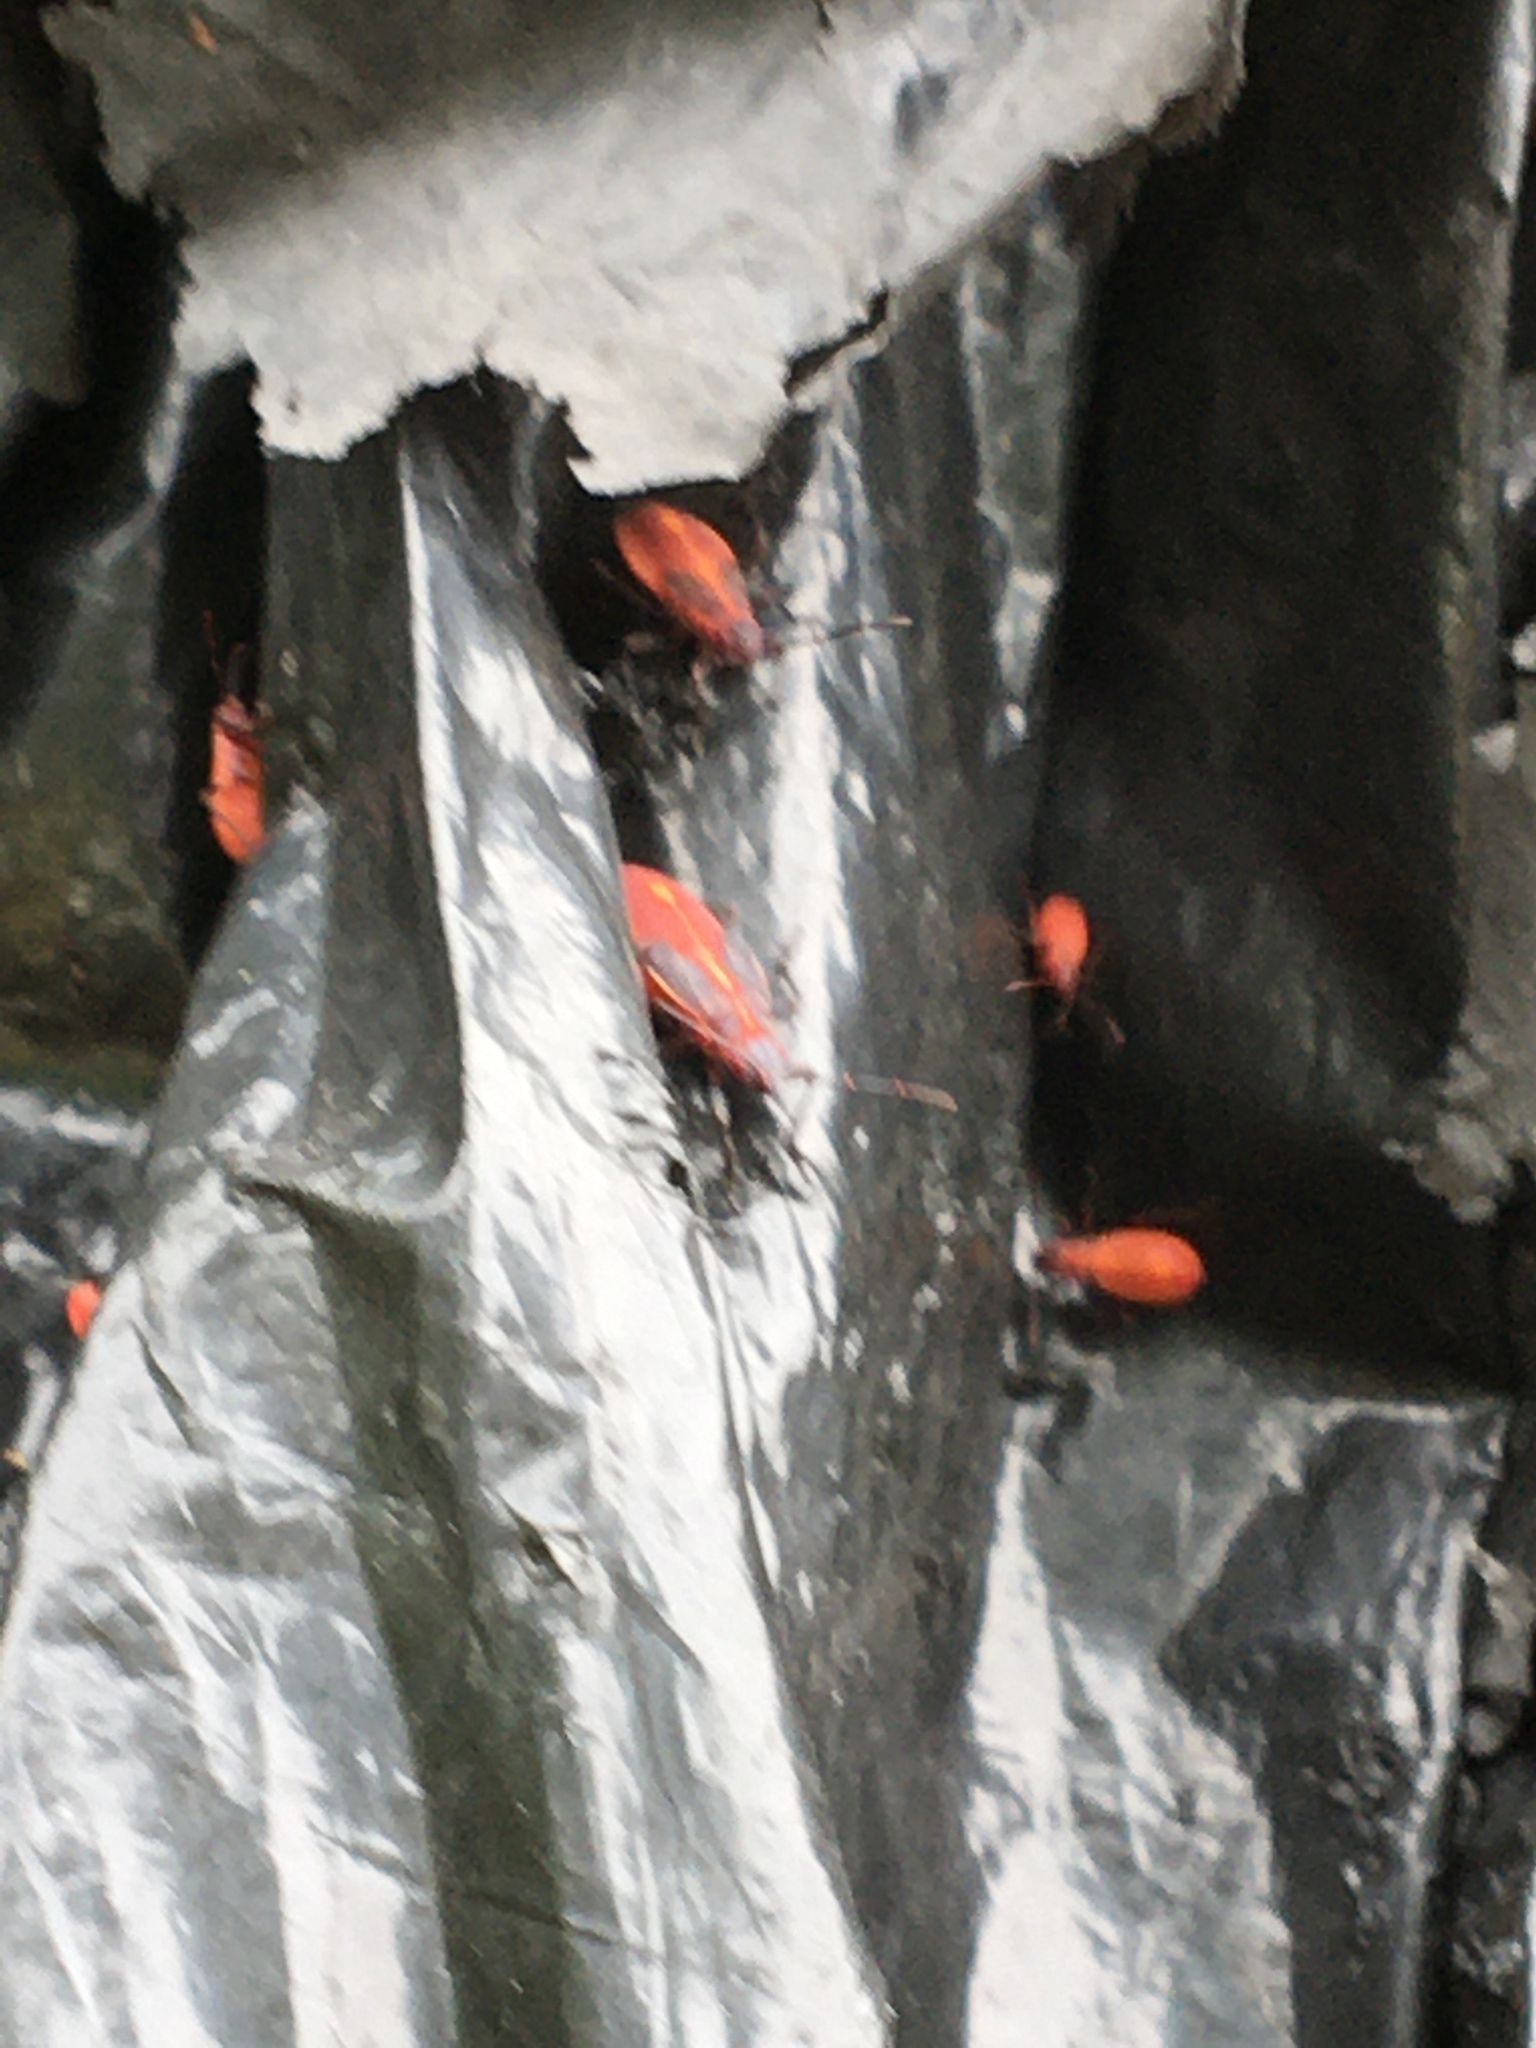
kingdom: Animalia
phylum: Arthropoda
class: Insecta
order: Hemiptera
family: Rhopalidae
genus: Boisea
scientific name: Boisea trivittata
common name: Boxelder bug
